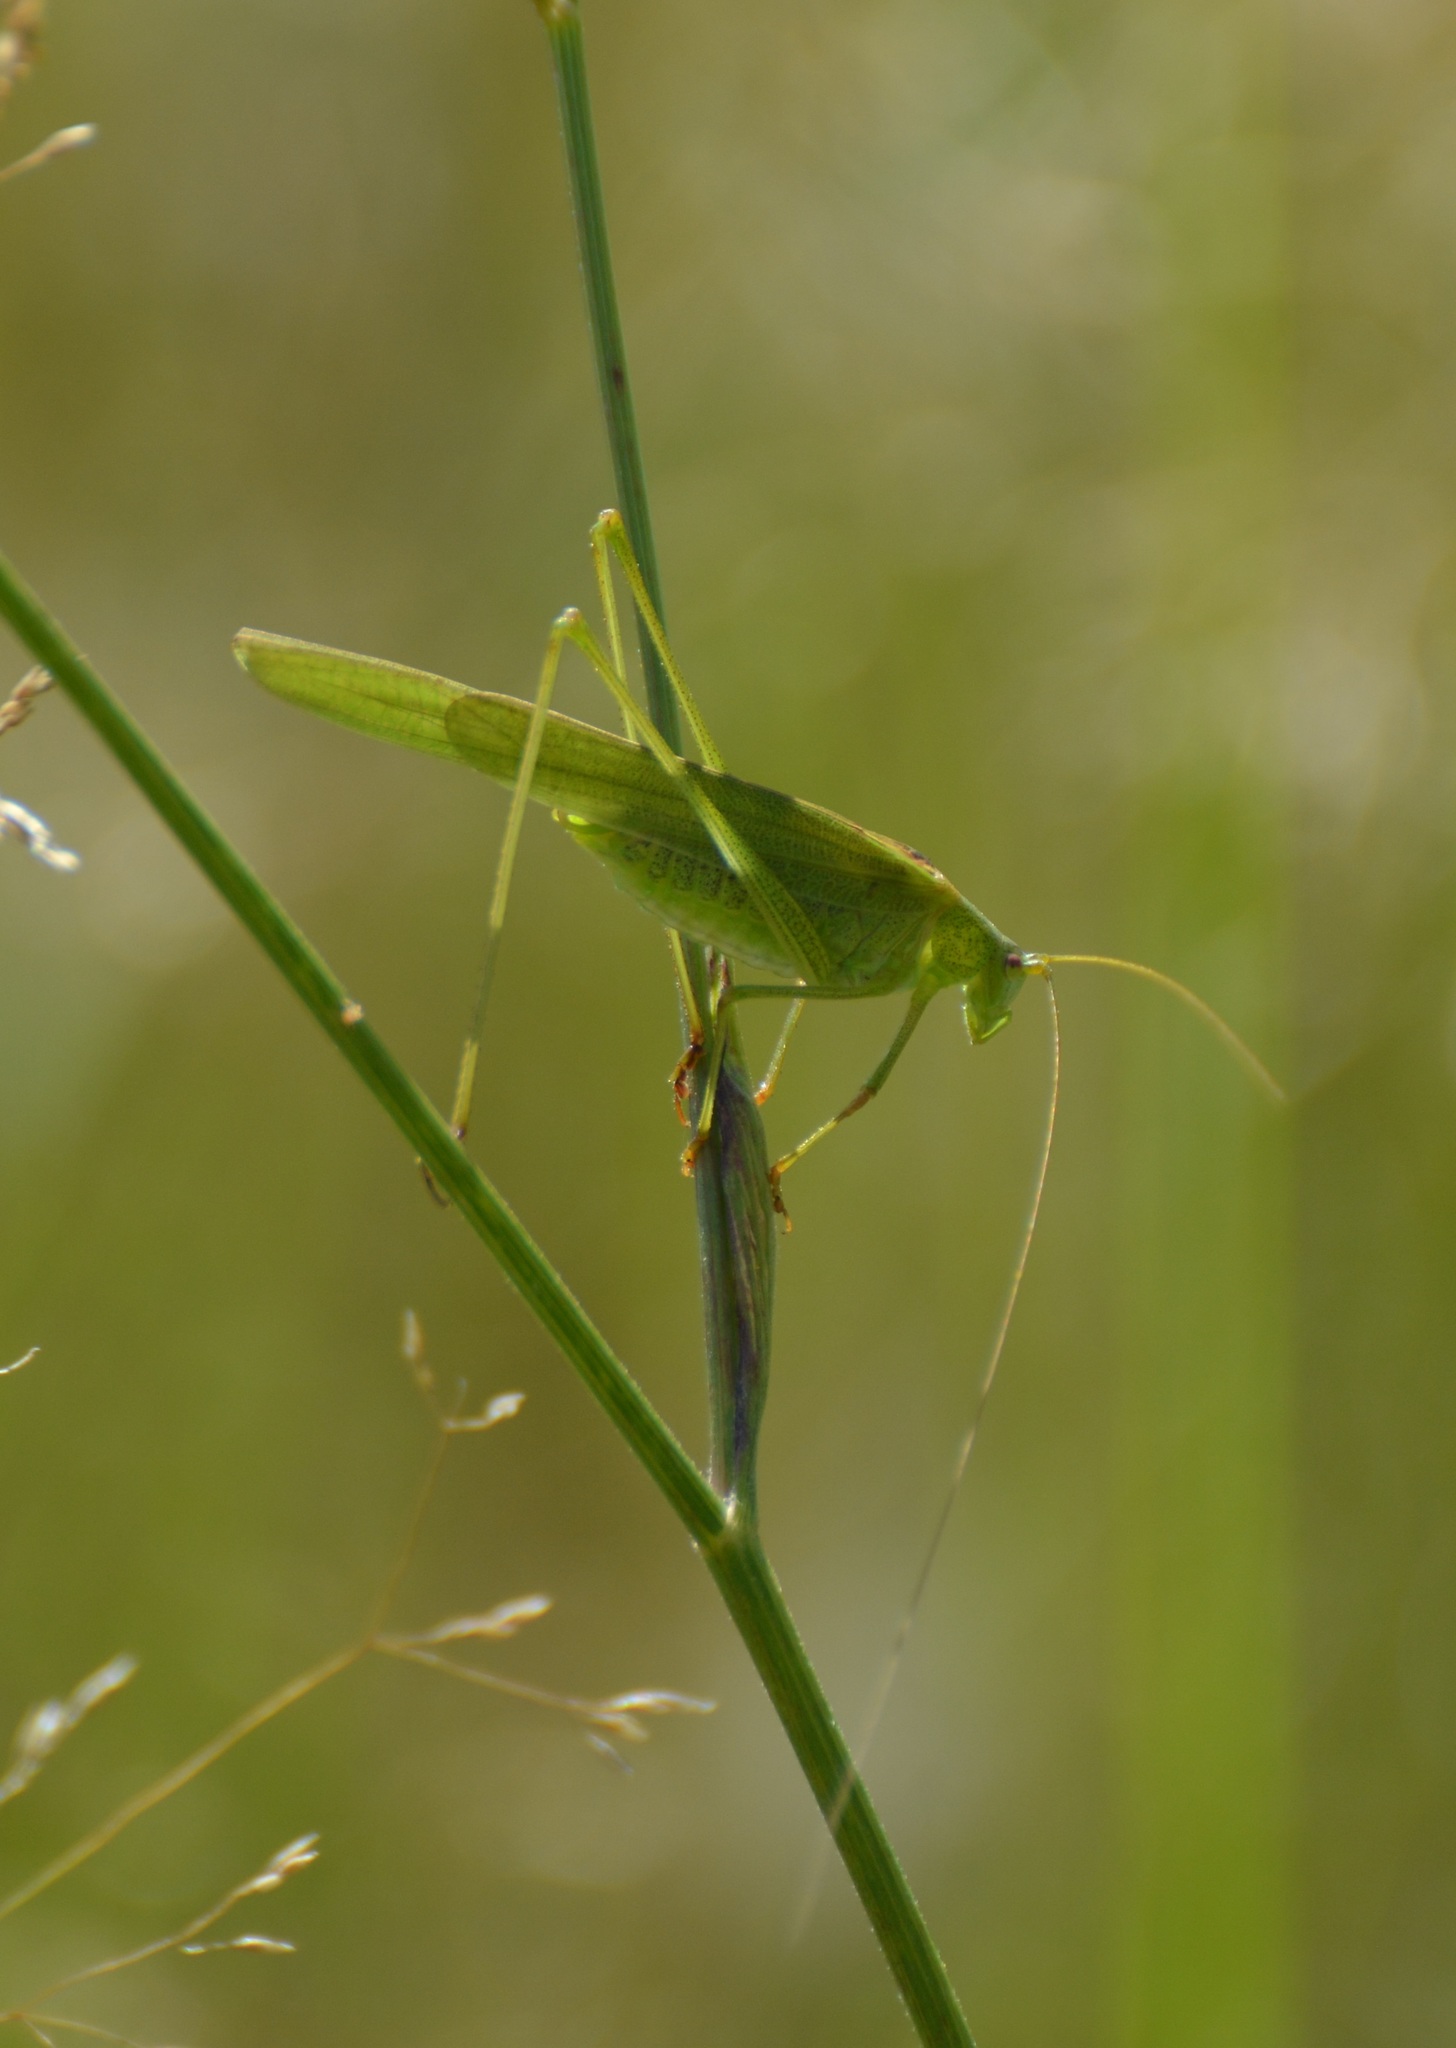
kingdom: Animalia
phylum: Arthropoda
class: Insecta
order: Orthoptera
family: Tettigoniidae
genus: Phaneroptera
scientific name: Phaneroptera falcata
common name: Sickle-bearing bush-cricket
